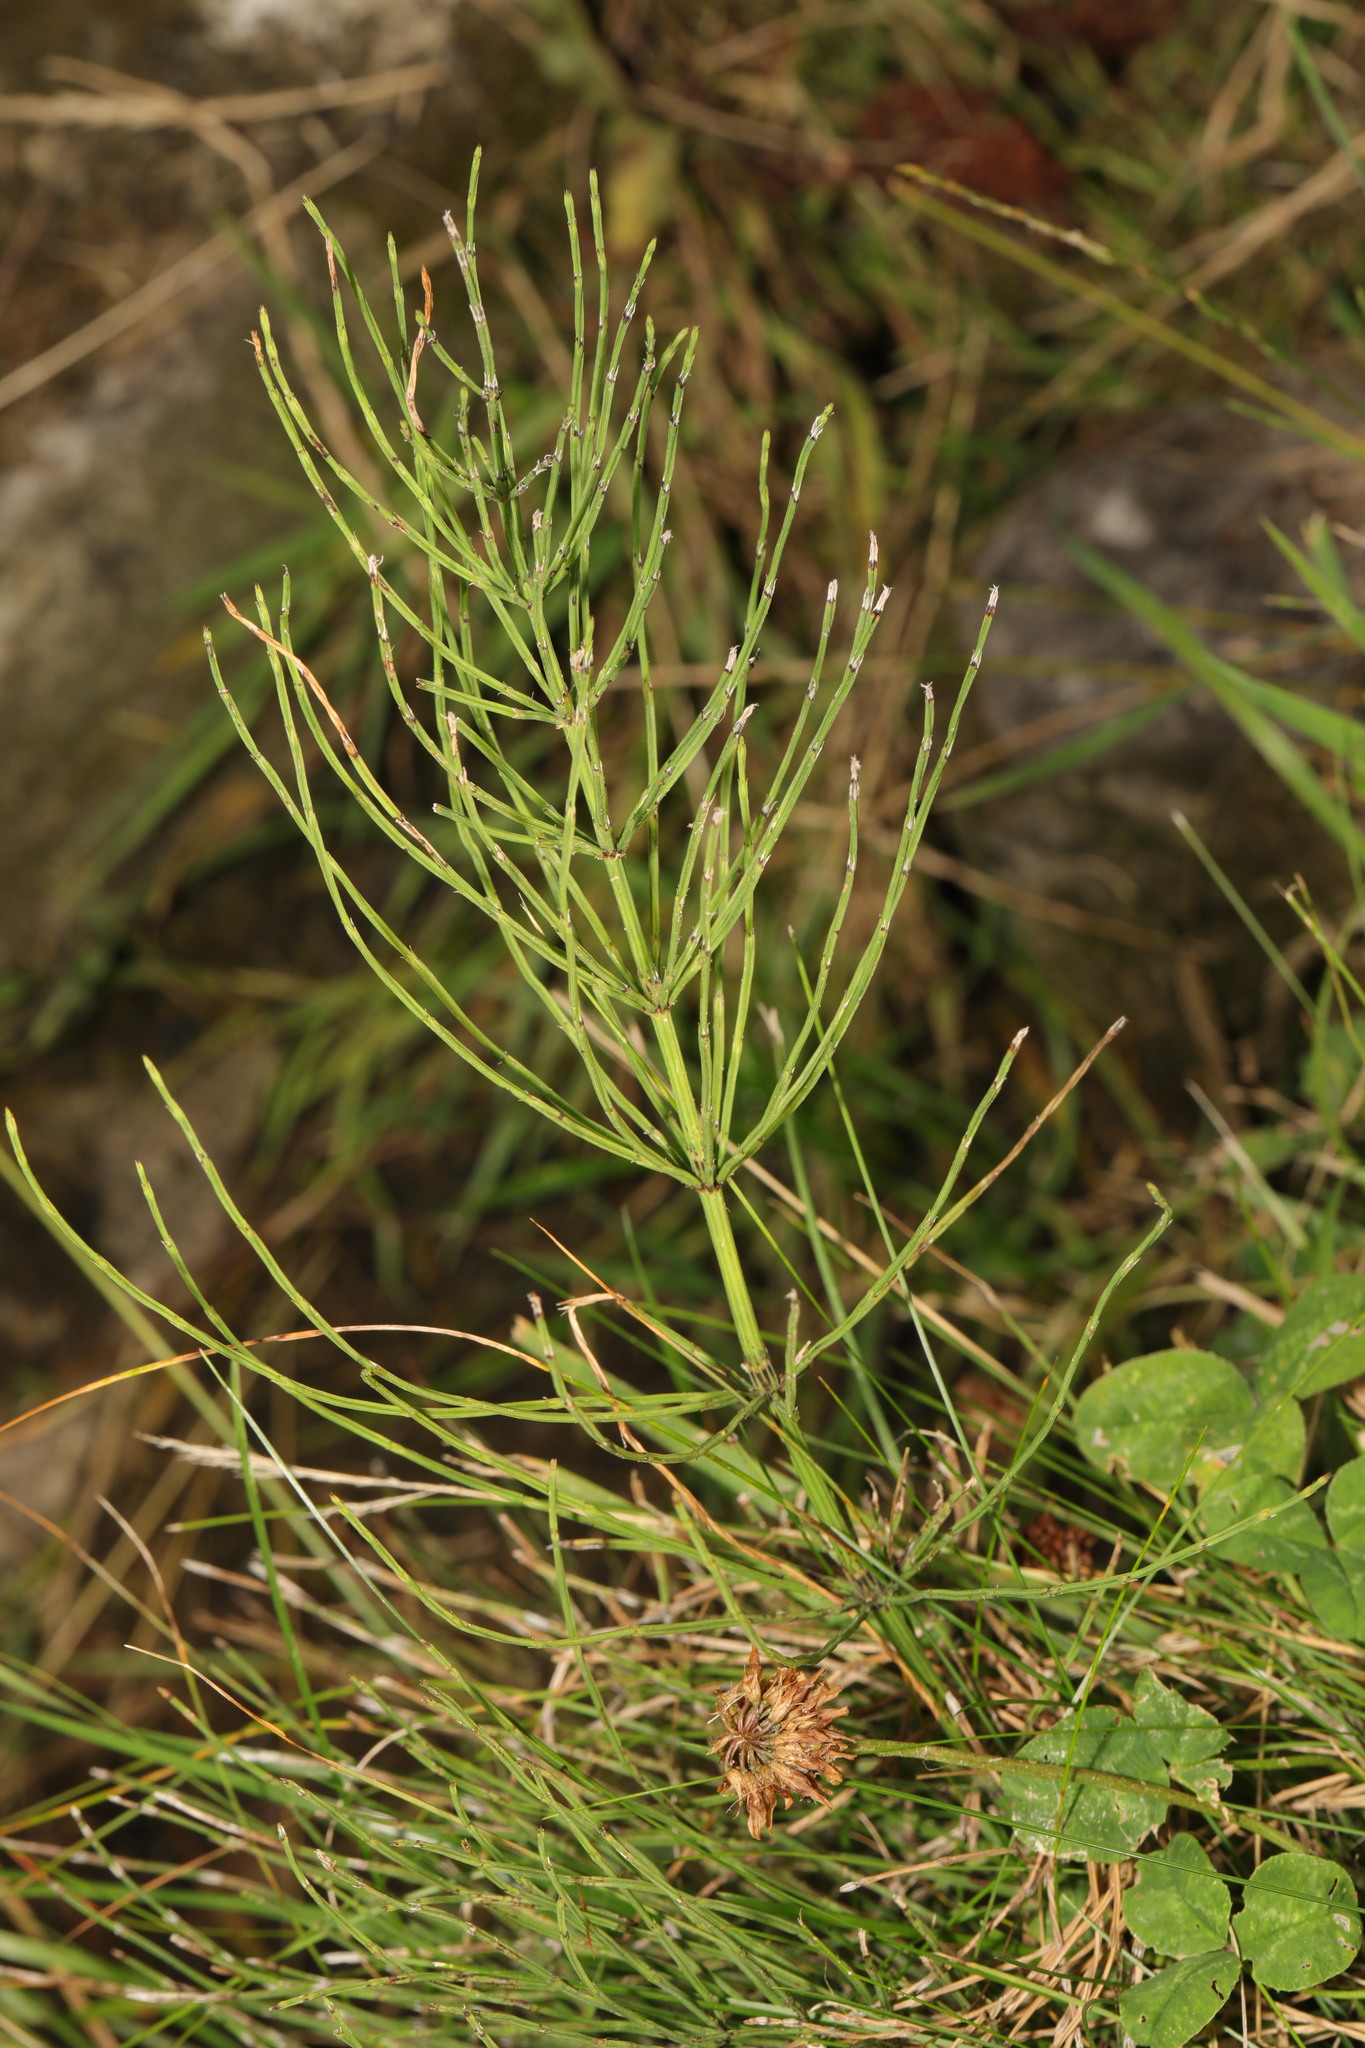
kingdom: Plantae
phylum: Tracheophyta
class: Polypodiopsida
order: Equisetales
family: Equisetaceae
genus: Equisetum
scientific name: Equisetum arvense
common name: Field horsetail
